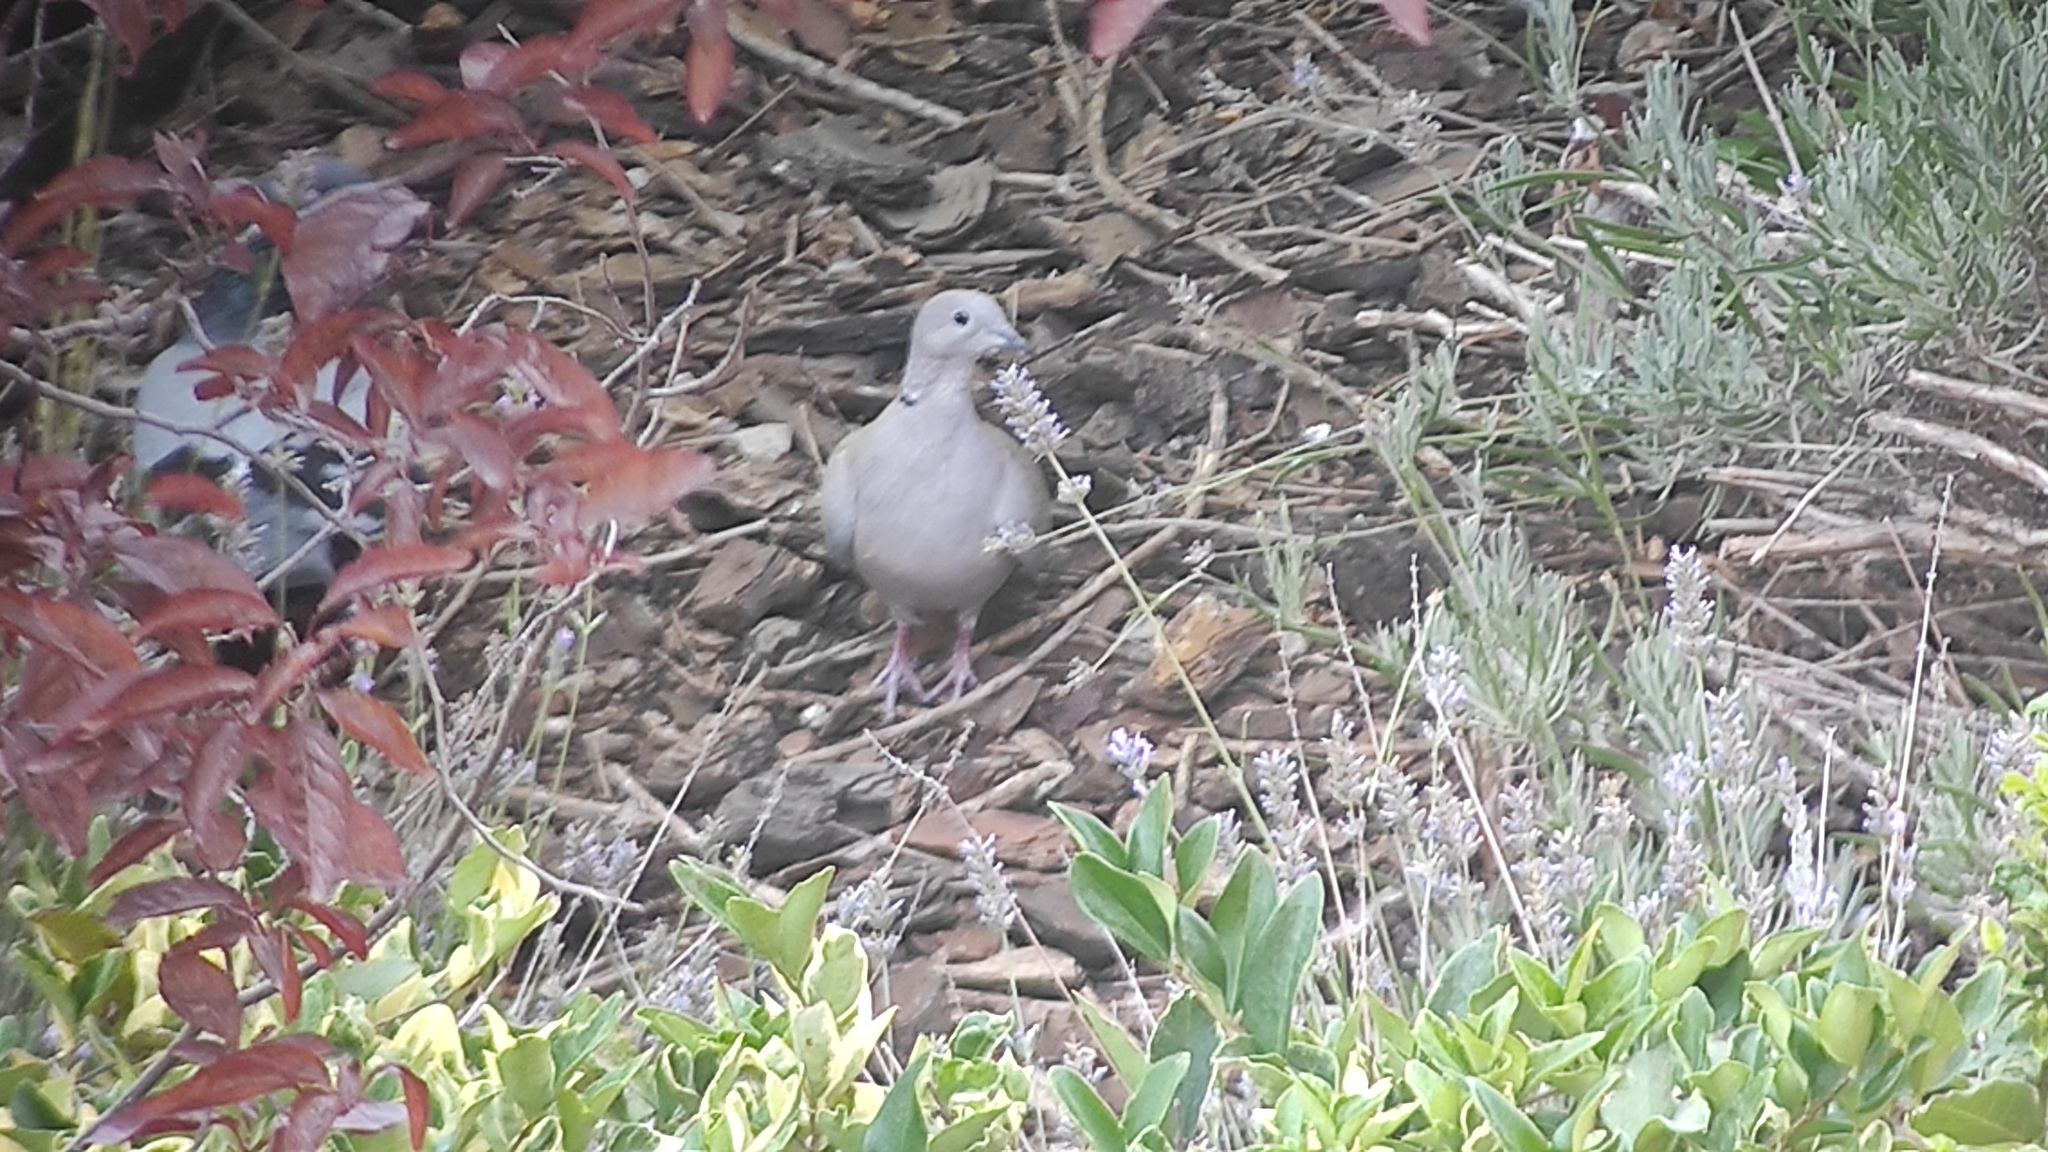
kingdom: Animalia
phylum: Chordata
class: Aves
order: Columbiformes
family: Columbidae
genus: Streptopelia
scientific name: Streptopelia decaocto
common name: Eurasian collared dove
